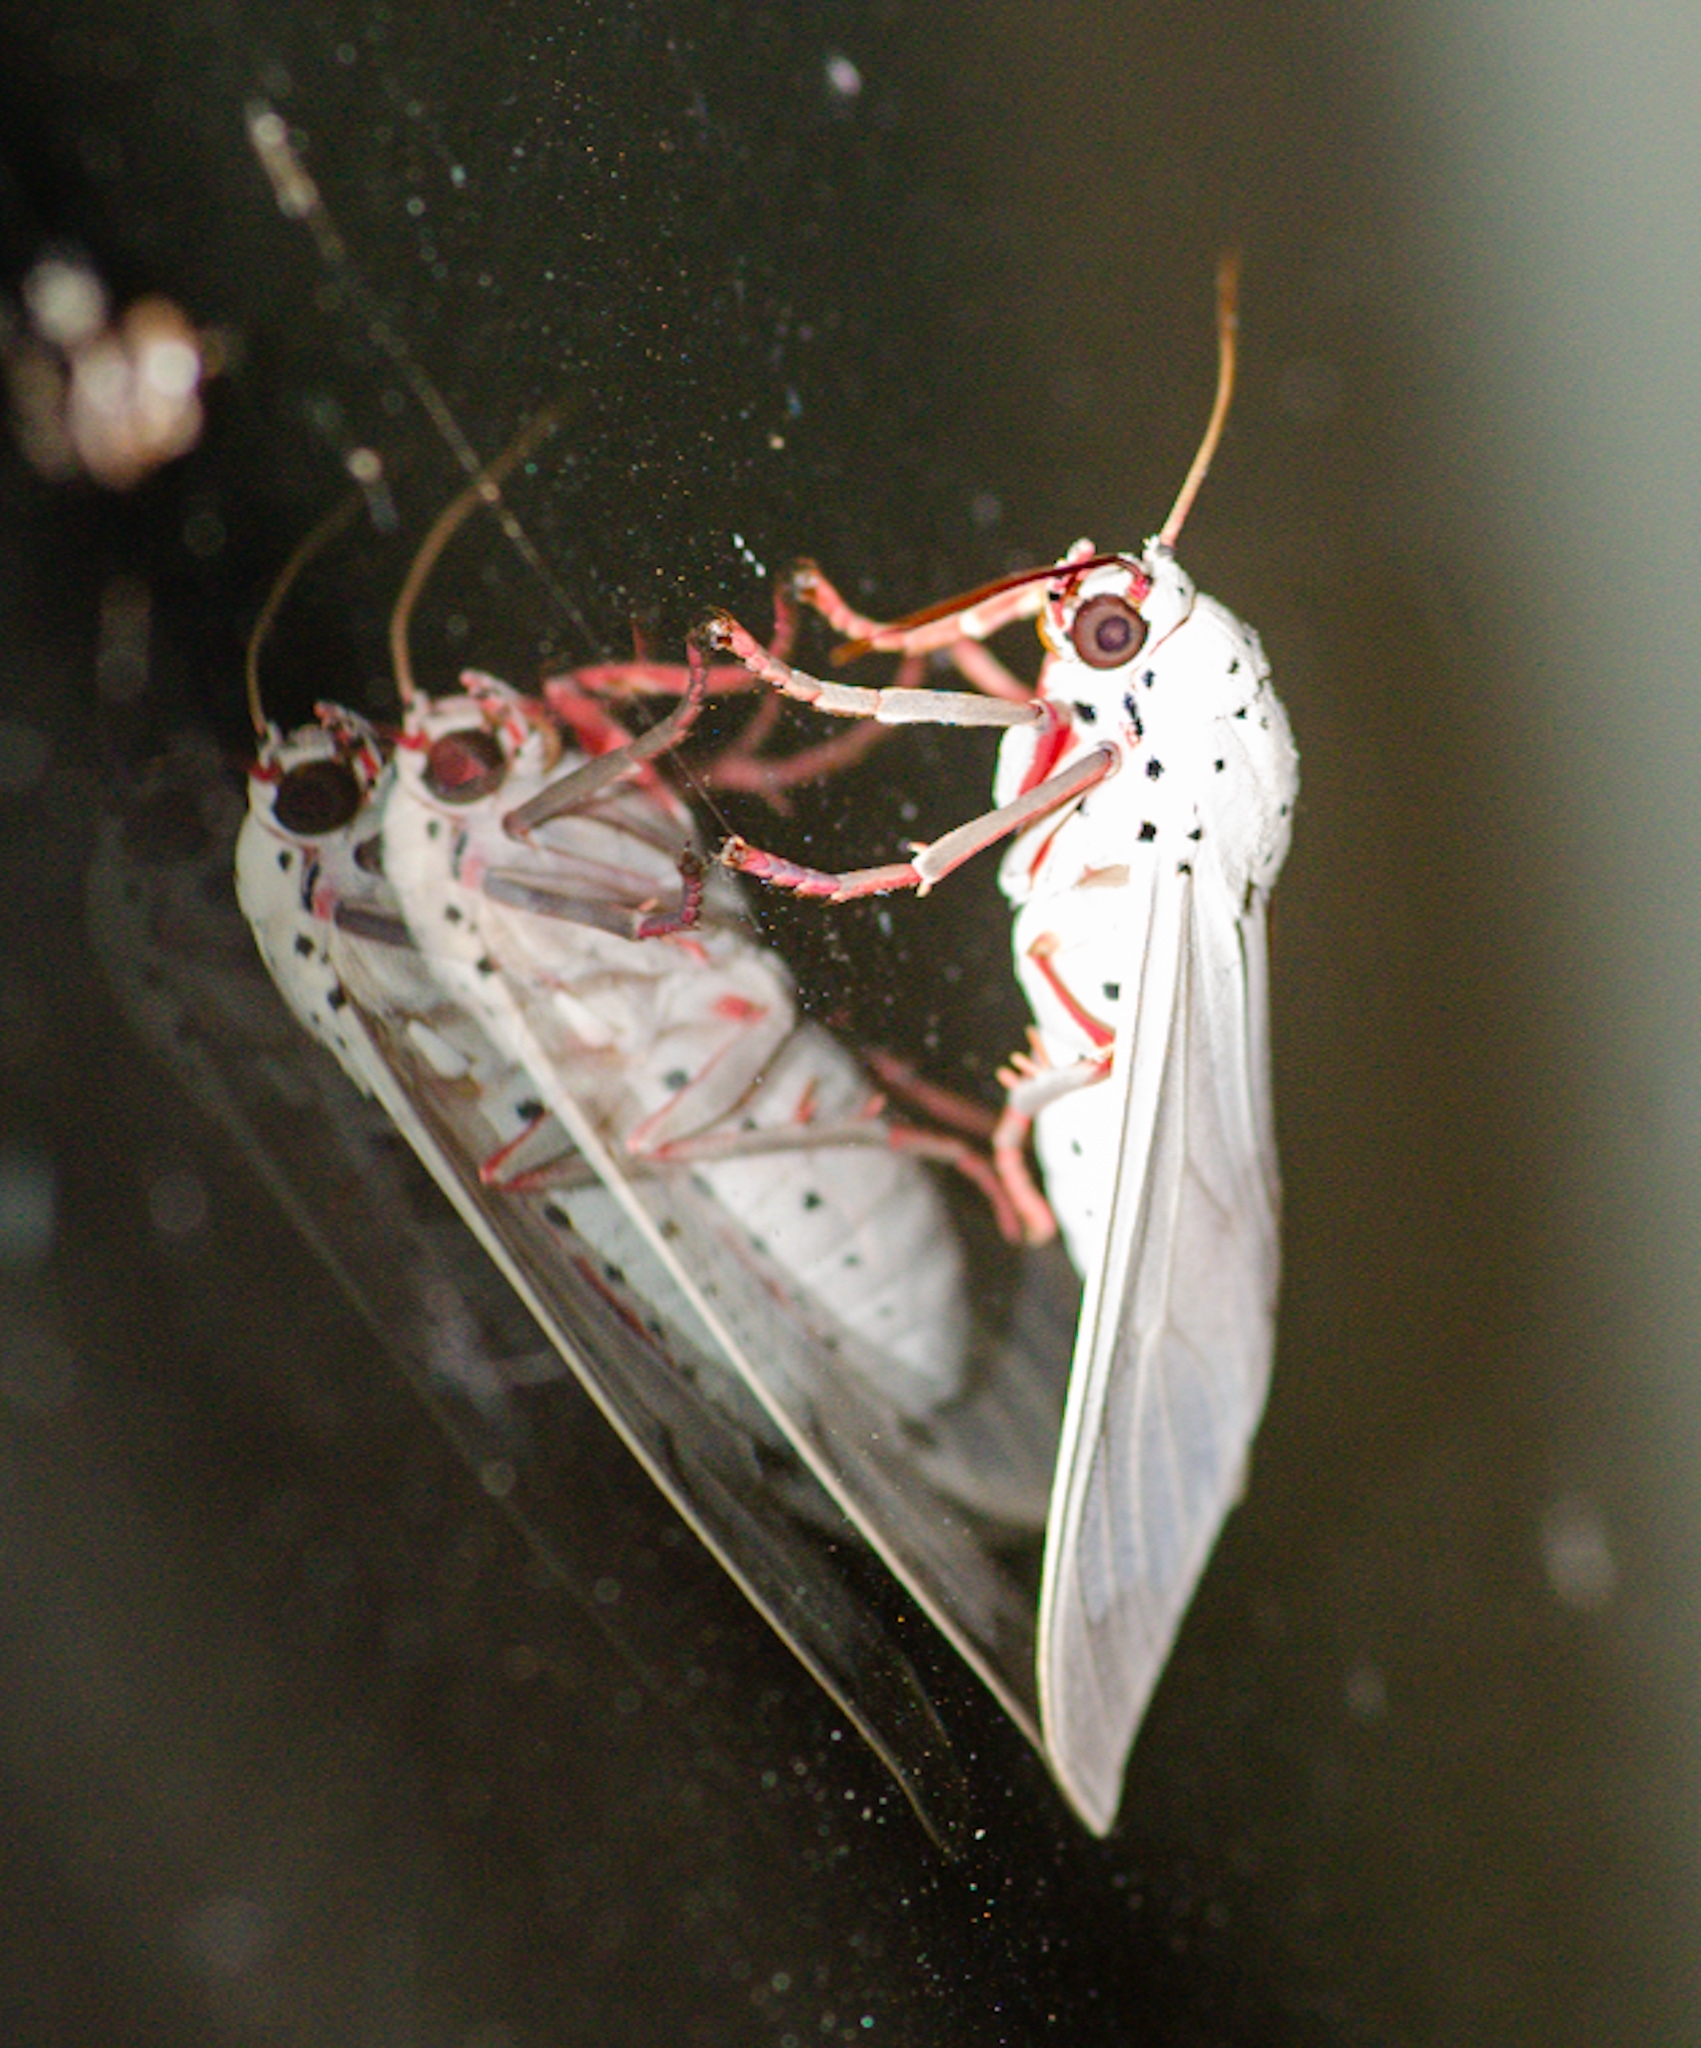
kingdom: Animalia
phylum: Arthropoda
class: Insecta
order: Lepidoptera
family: Erebidae
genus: Amerila
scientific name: Amerila astreus
